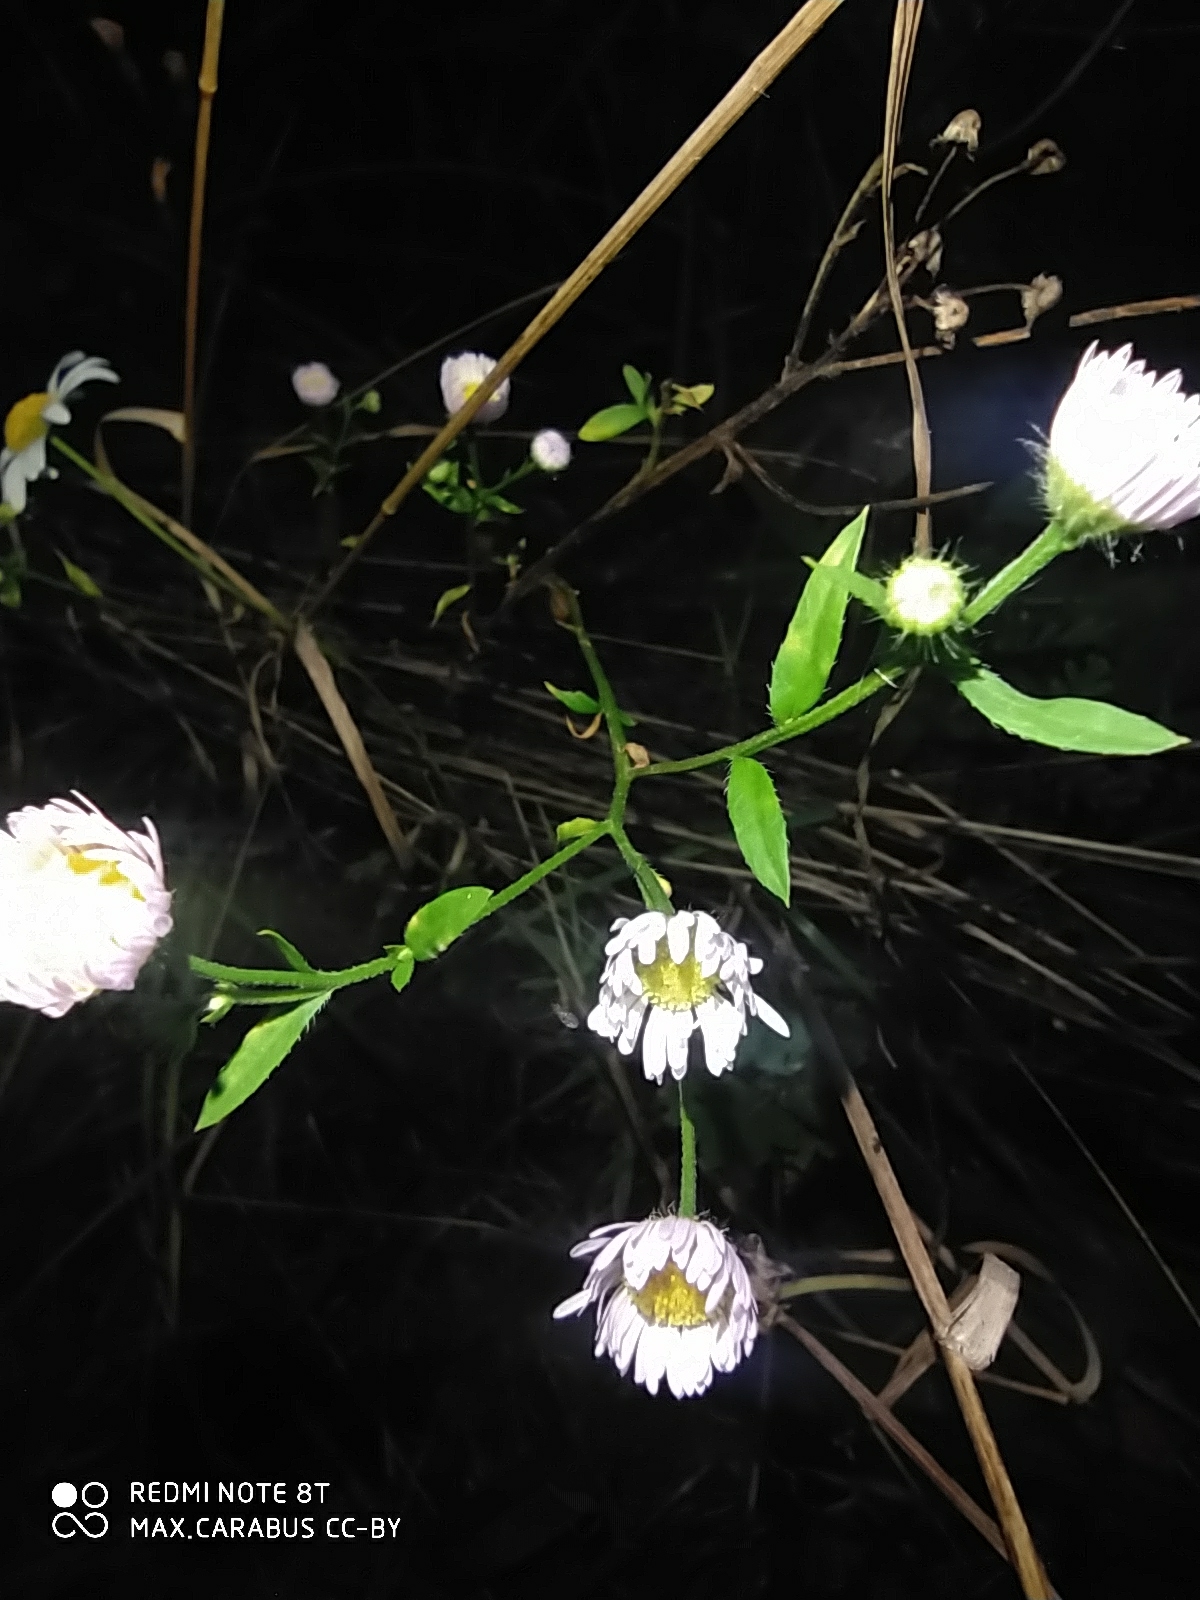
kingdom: Plantae
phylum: Tracheophyta
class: Magnoliopsida
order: Asterales
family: Asteraceae
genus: Erigeron
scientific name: Erigeron annuus
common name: Tall fleabane
